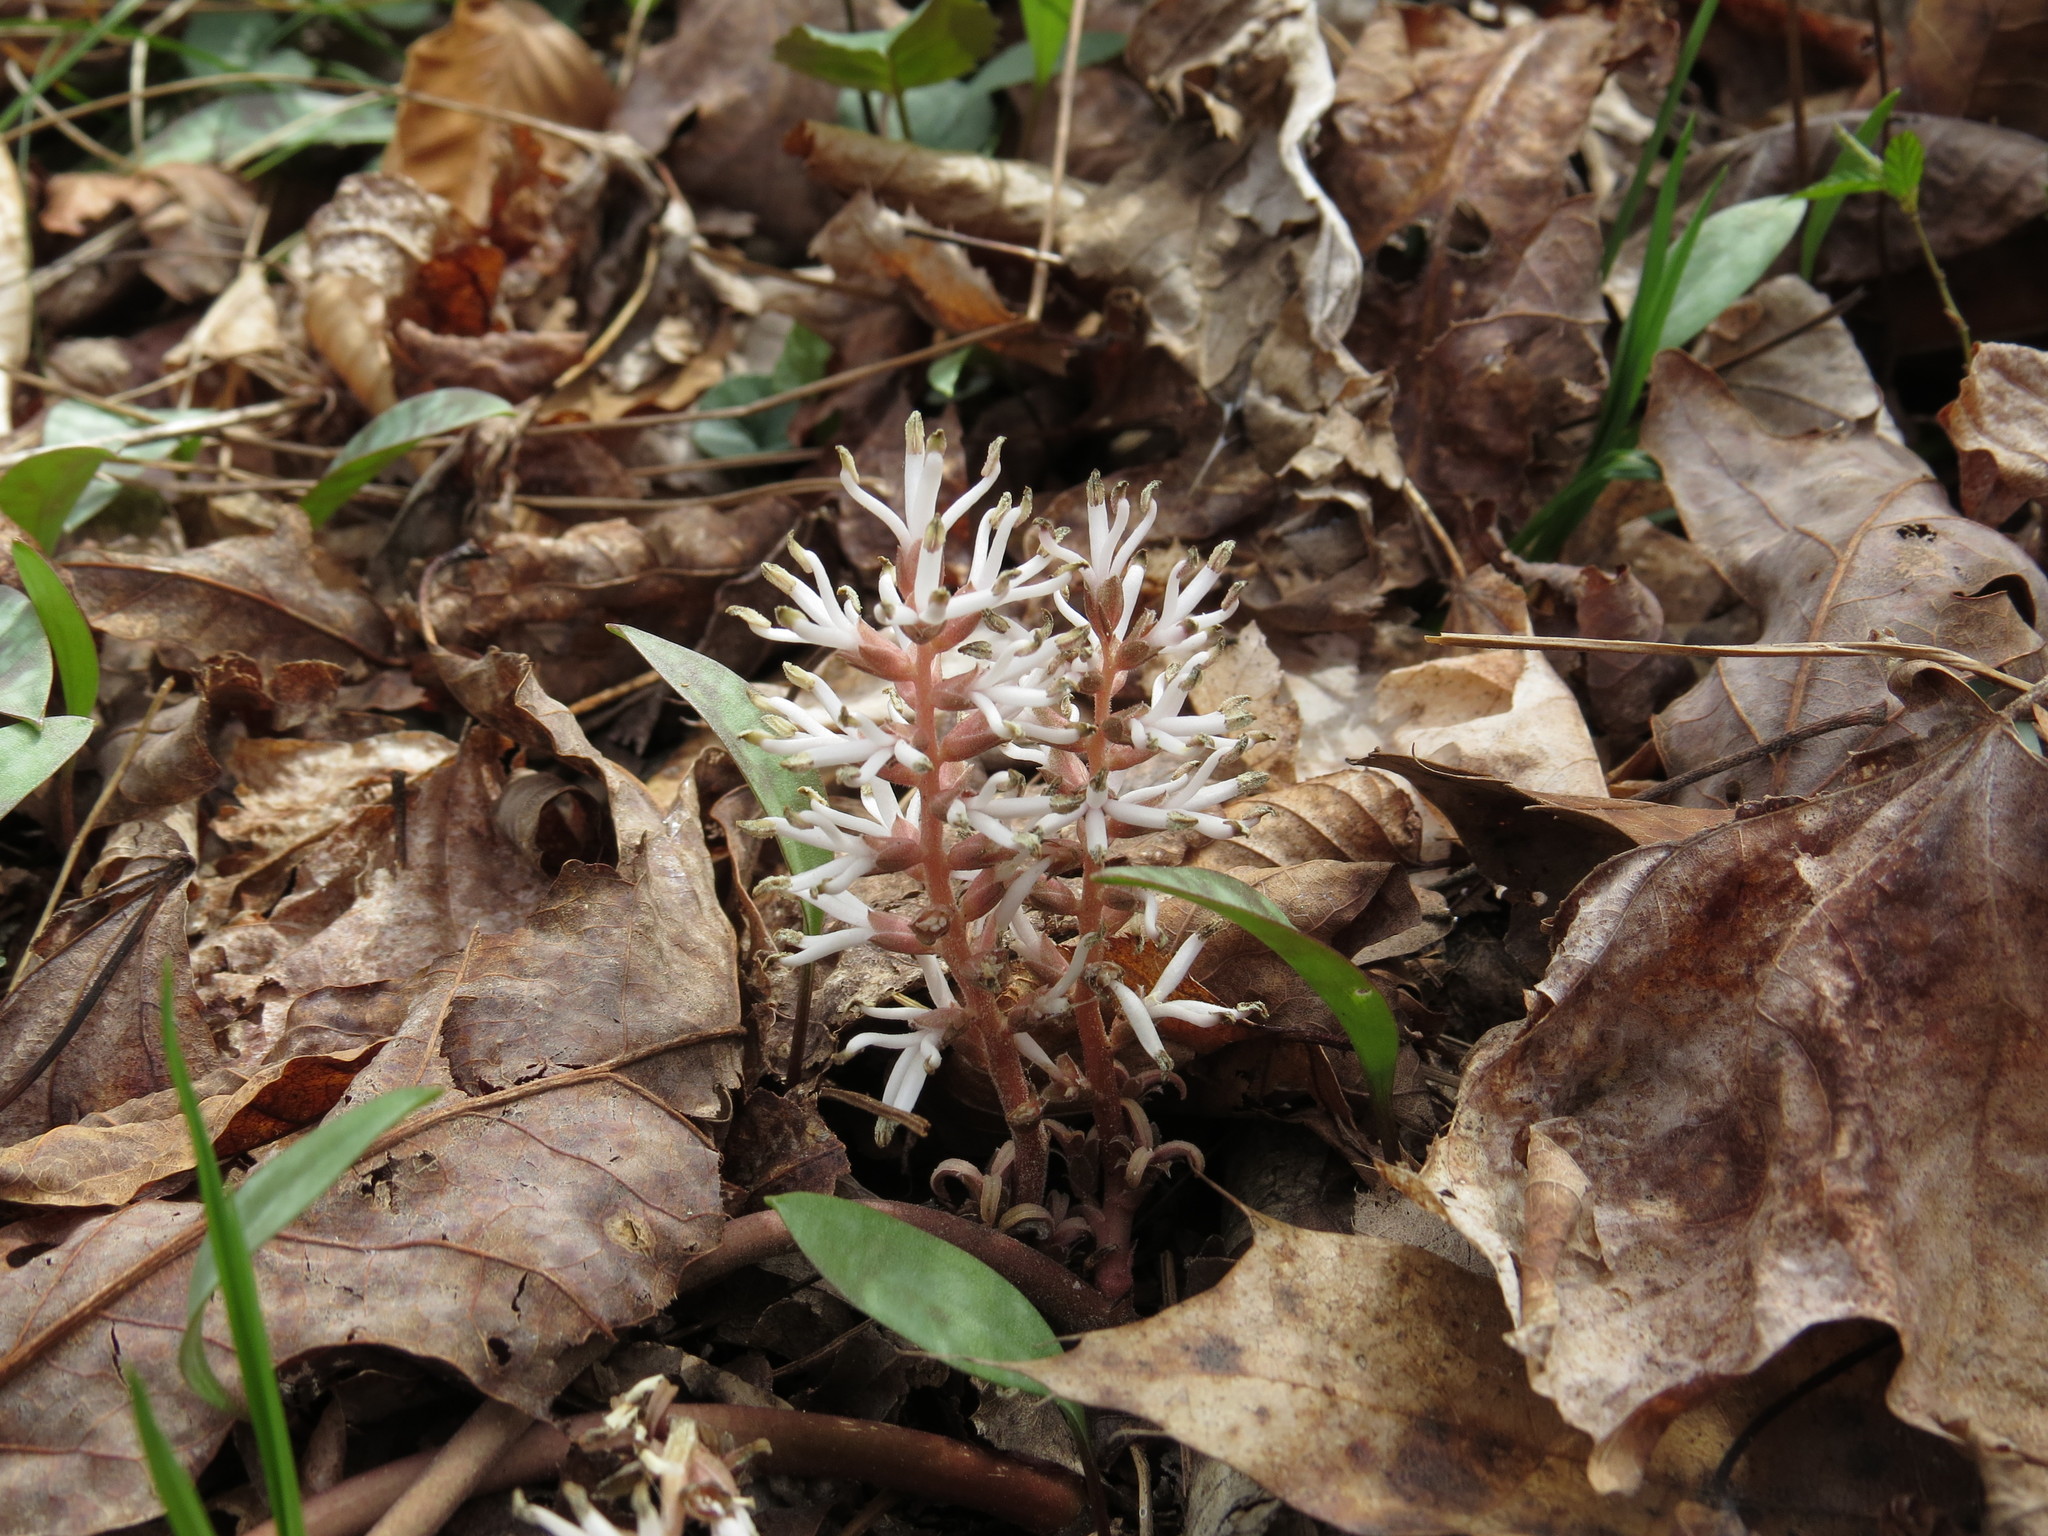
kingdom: Plantae
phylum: Tracheophyta
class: Magnoliopsida
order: Buxales
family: Buxaceae
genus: Pachysandra
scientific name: Pachysandra procumbens
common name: Mountain-spurge
